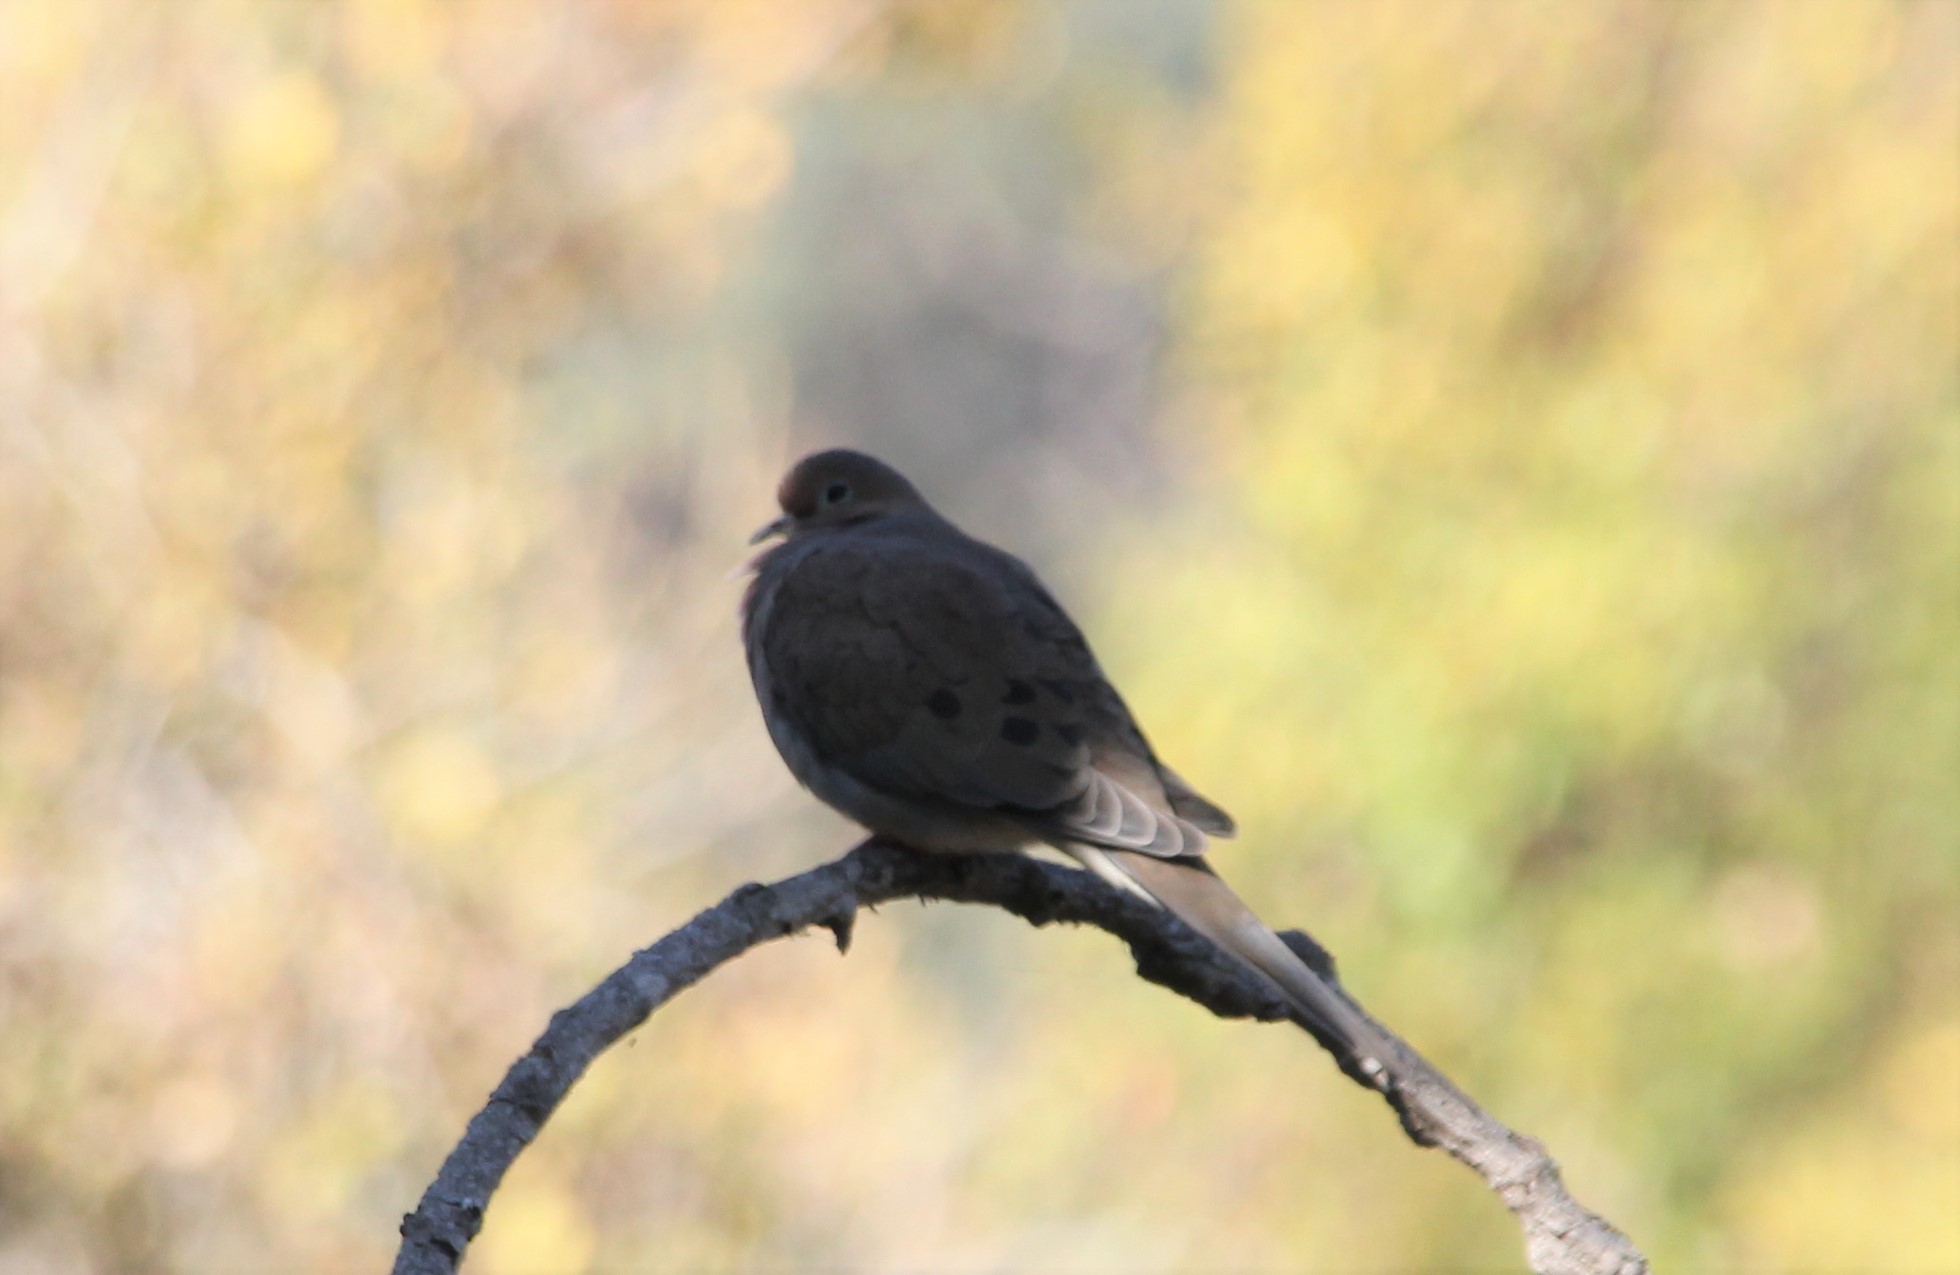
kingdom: Animalia
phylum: Chordata
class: Aves
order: Columbiformes
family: Columbidae
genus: Zenaida
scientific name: Zenaida macroura
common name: Mourning dove
